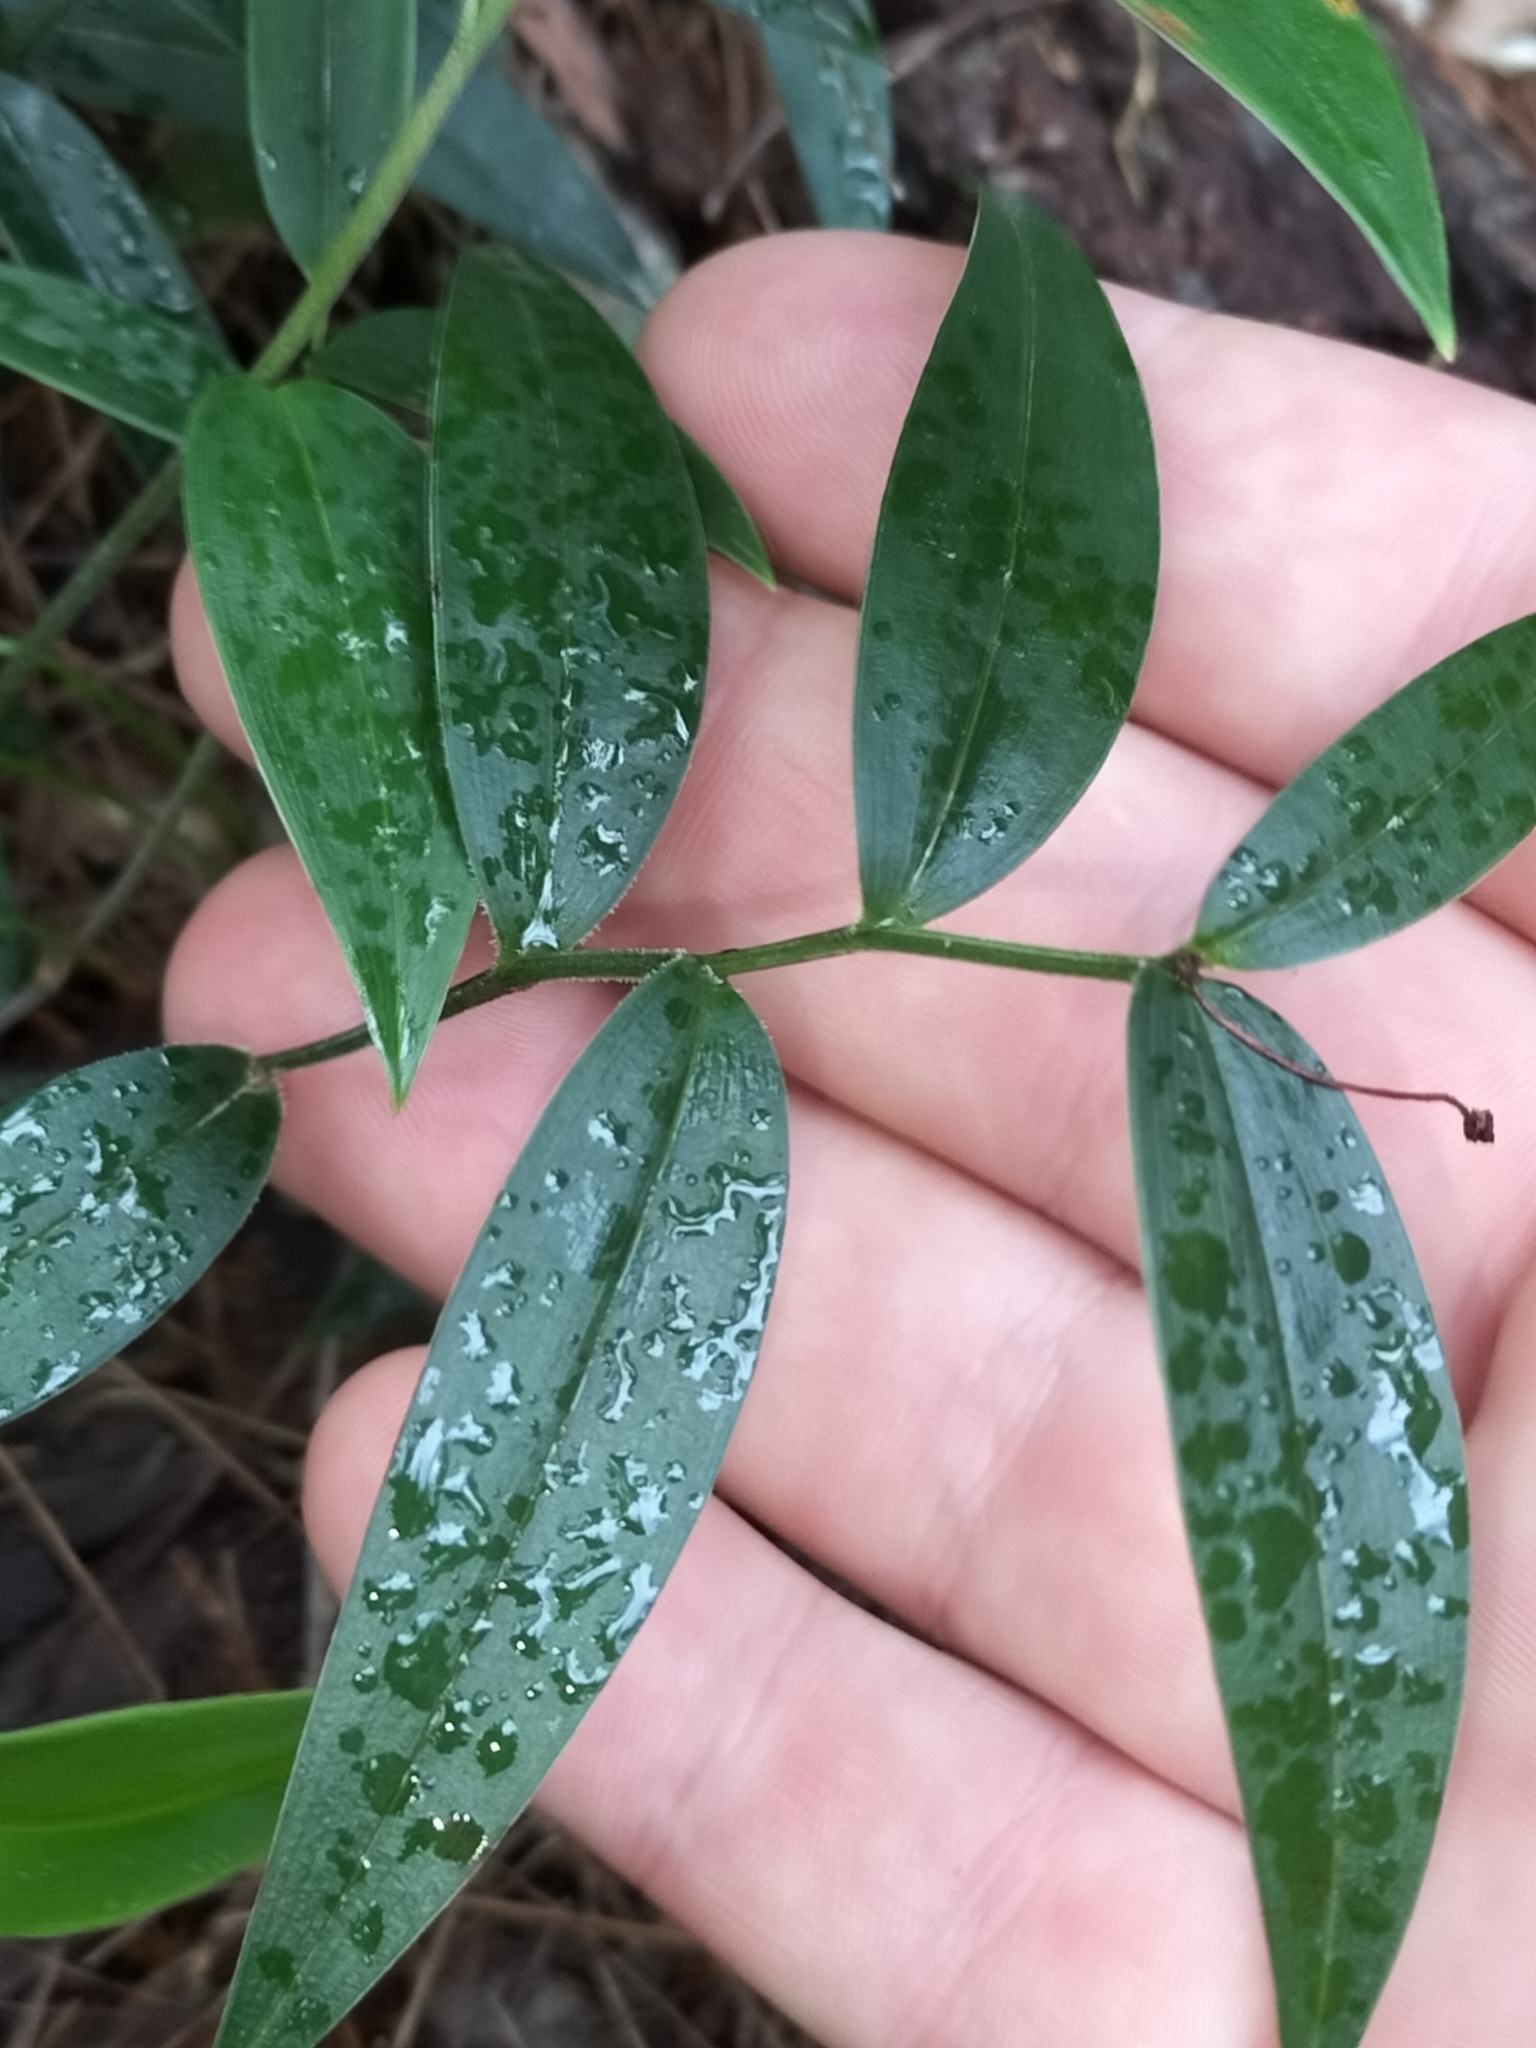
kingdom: Plantae
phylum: Tracheophyta
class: Liliopsida
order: Liliales
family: Colchicaceae
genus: Schelhammera
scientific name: Schelhammera multiflora
